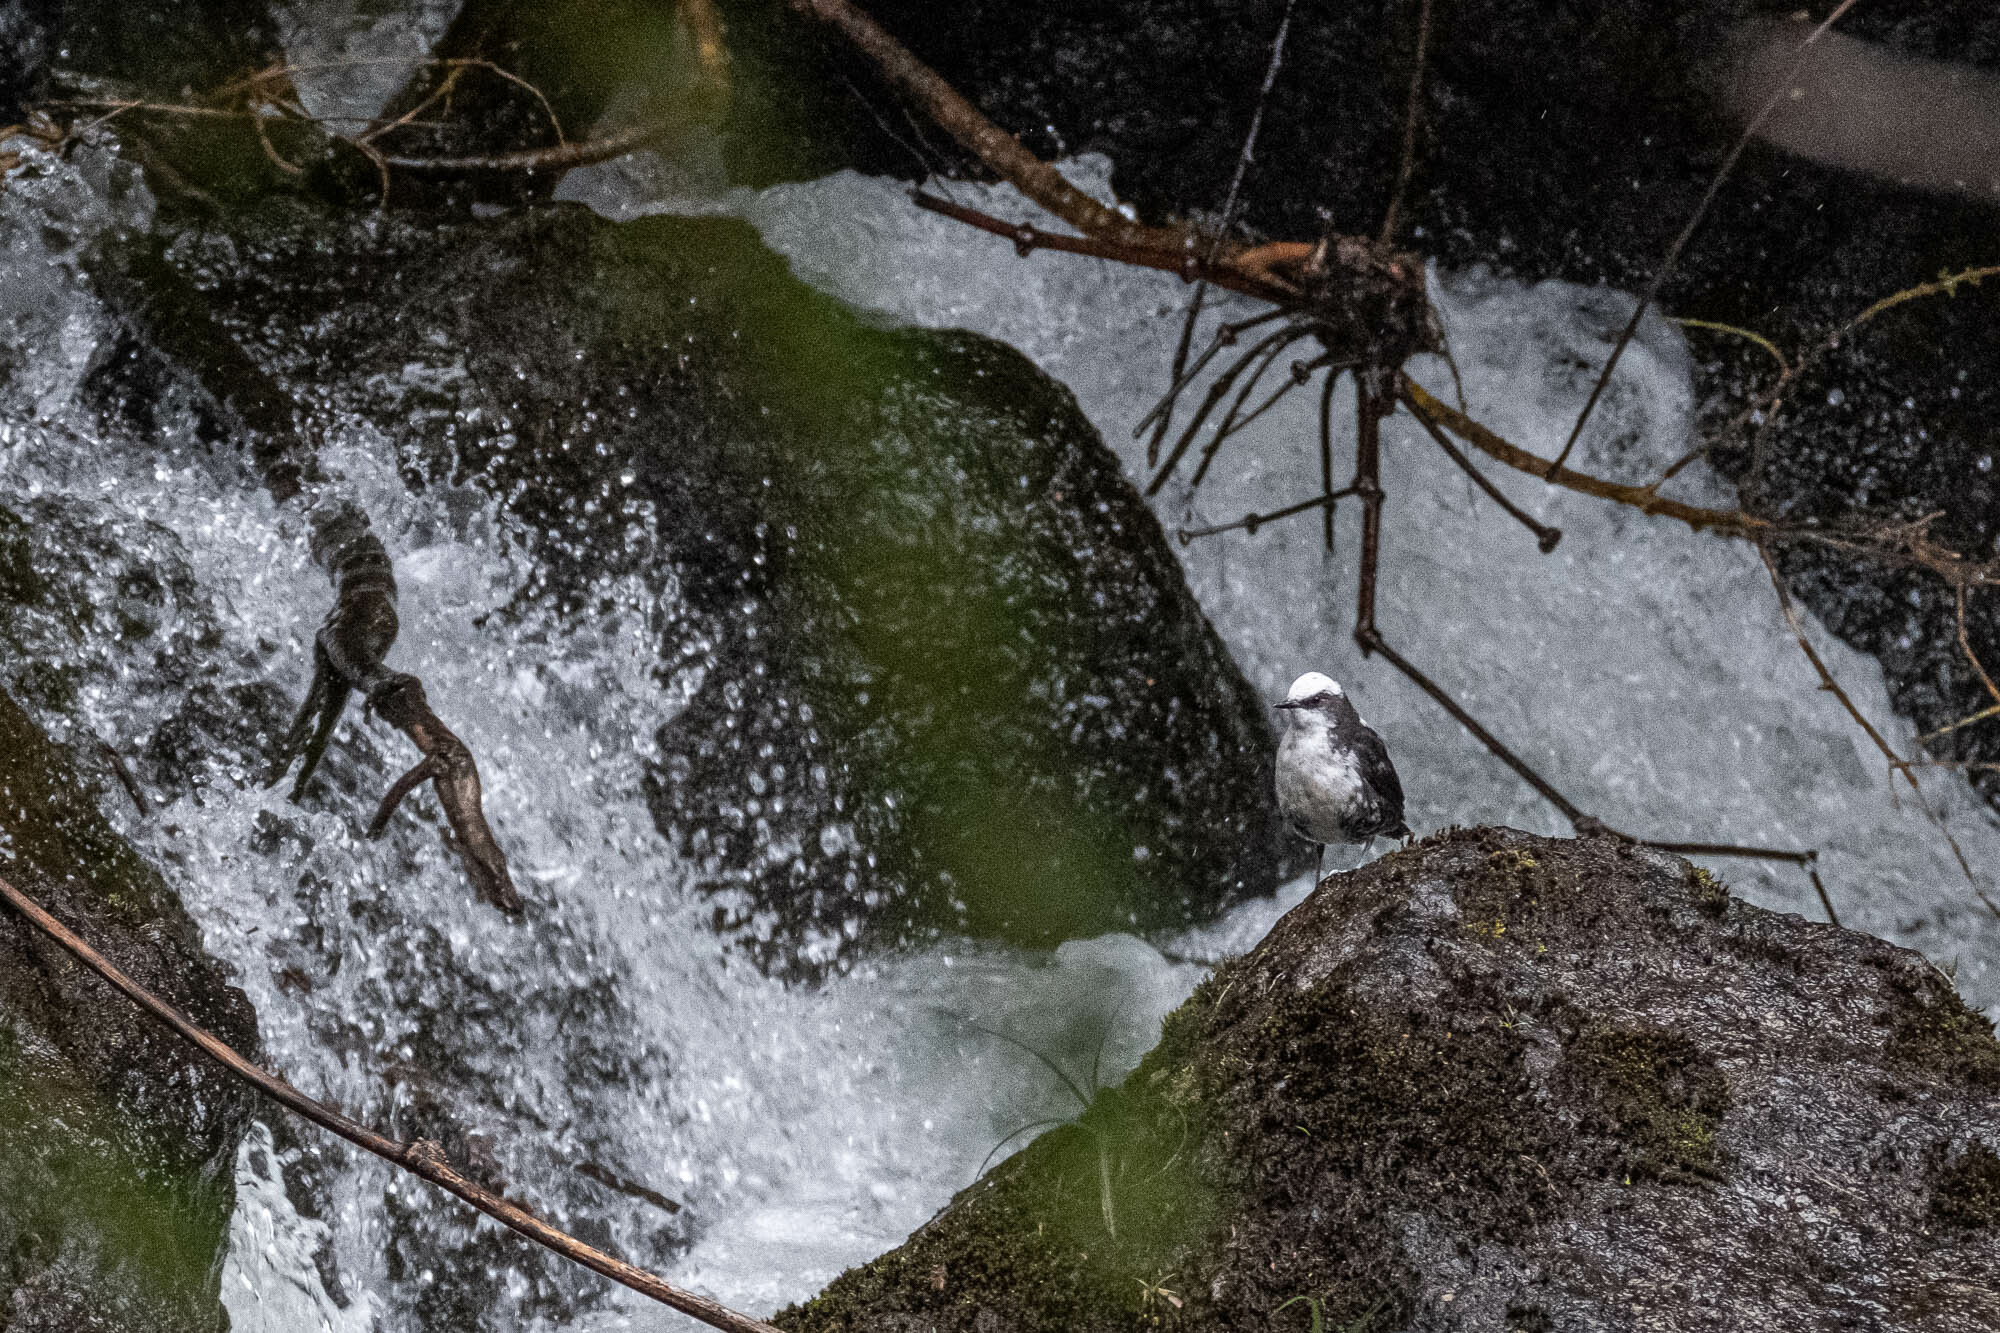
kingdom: Animalia
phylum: Chordata
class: Aves
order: Passeriformes
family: Cinclidae
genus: Cinclus
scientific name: Cinclus leucocephalus
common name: White-capped dipper
